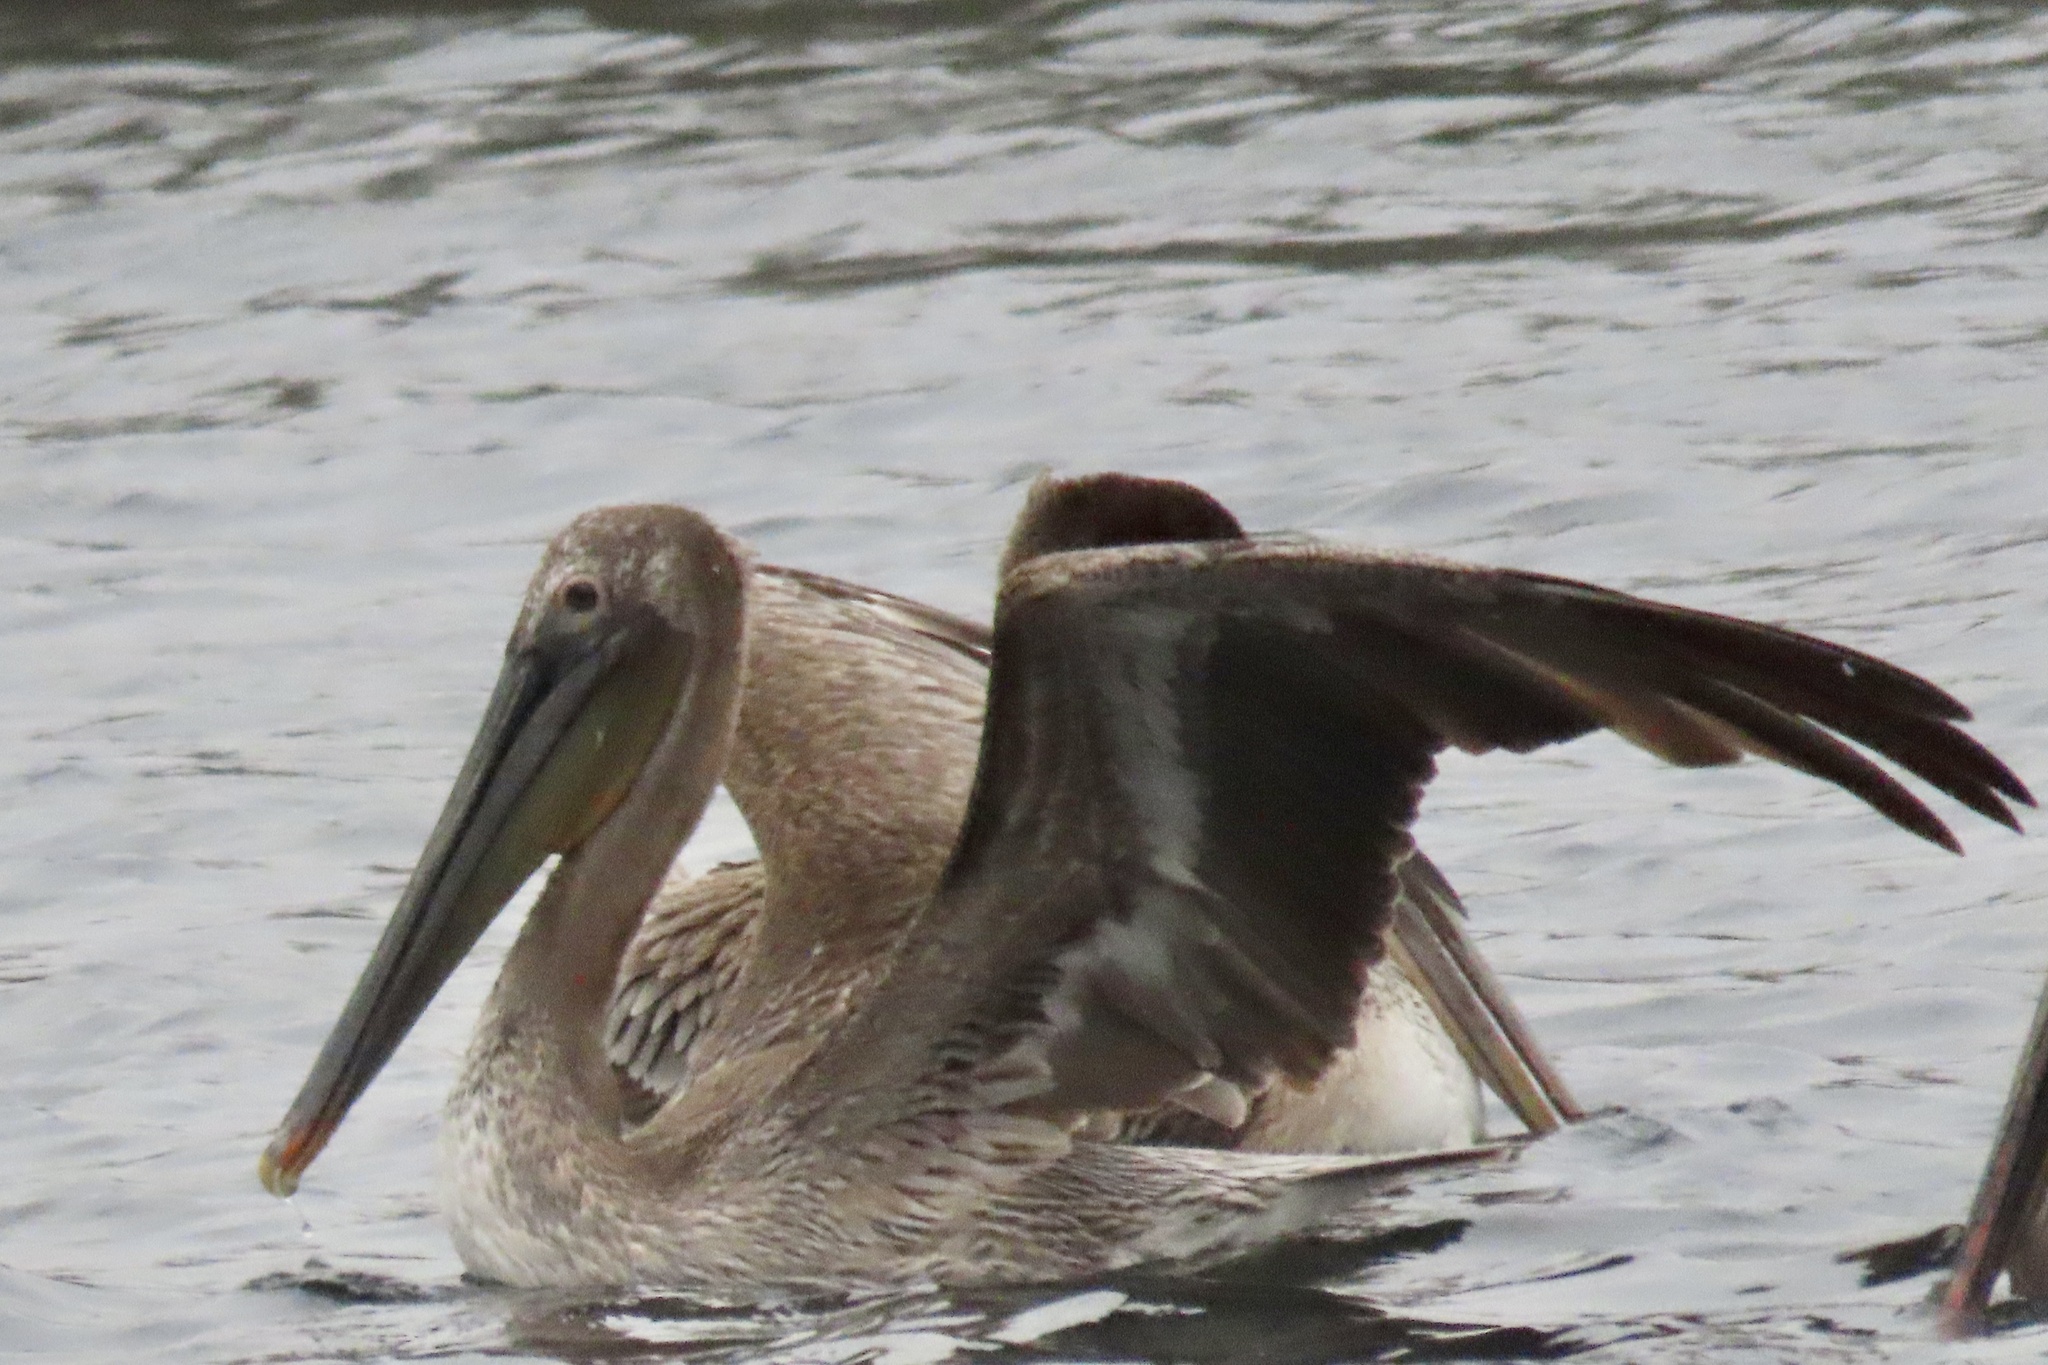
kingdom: Animalia
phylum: Chordata
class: Aves
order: Pelecaniformes
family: Pelecanidae
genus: Pelecanus
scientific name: Pelecanus occidentalis
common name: Brown pelican
